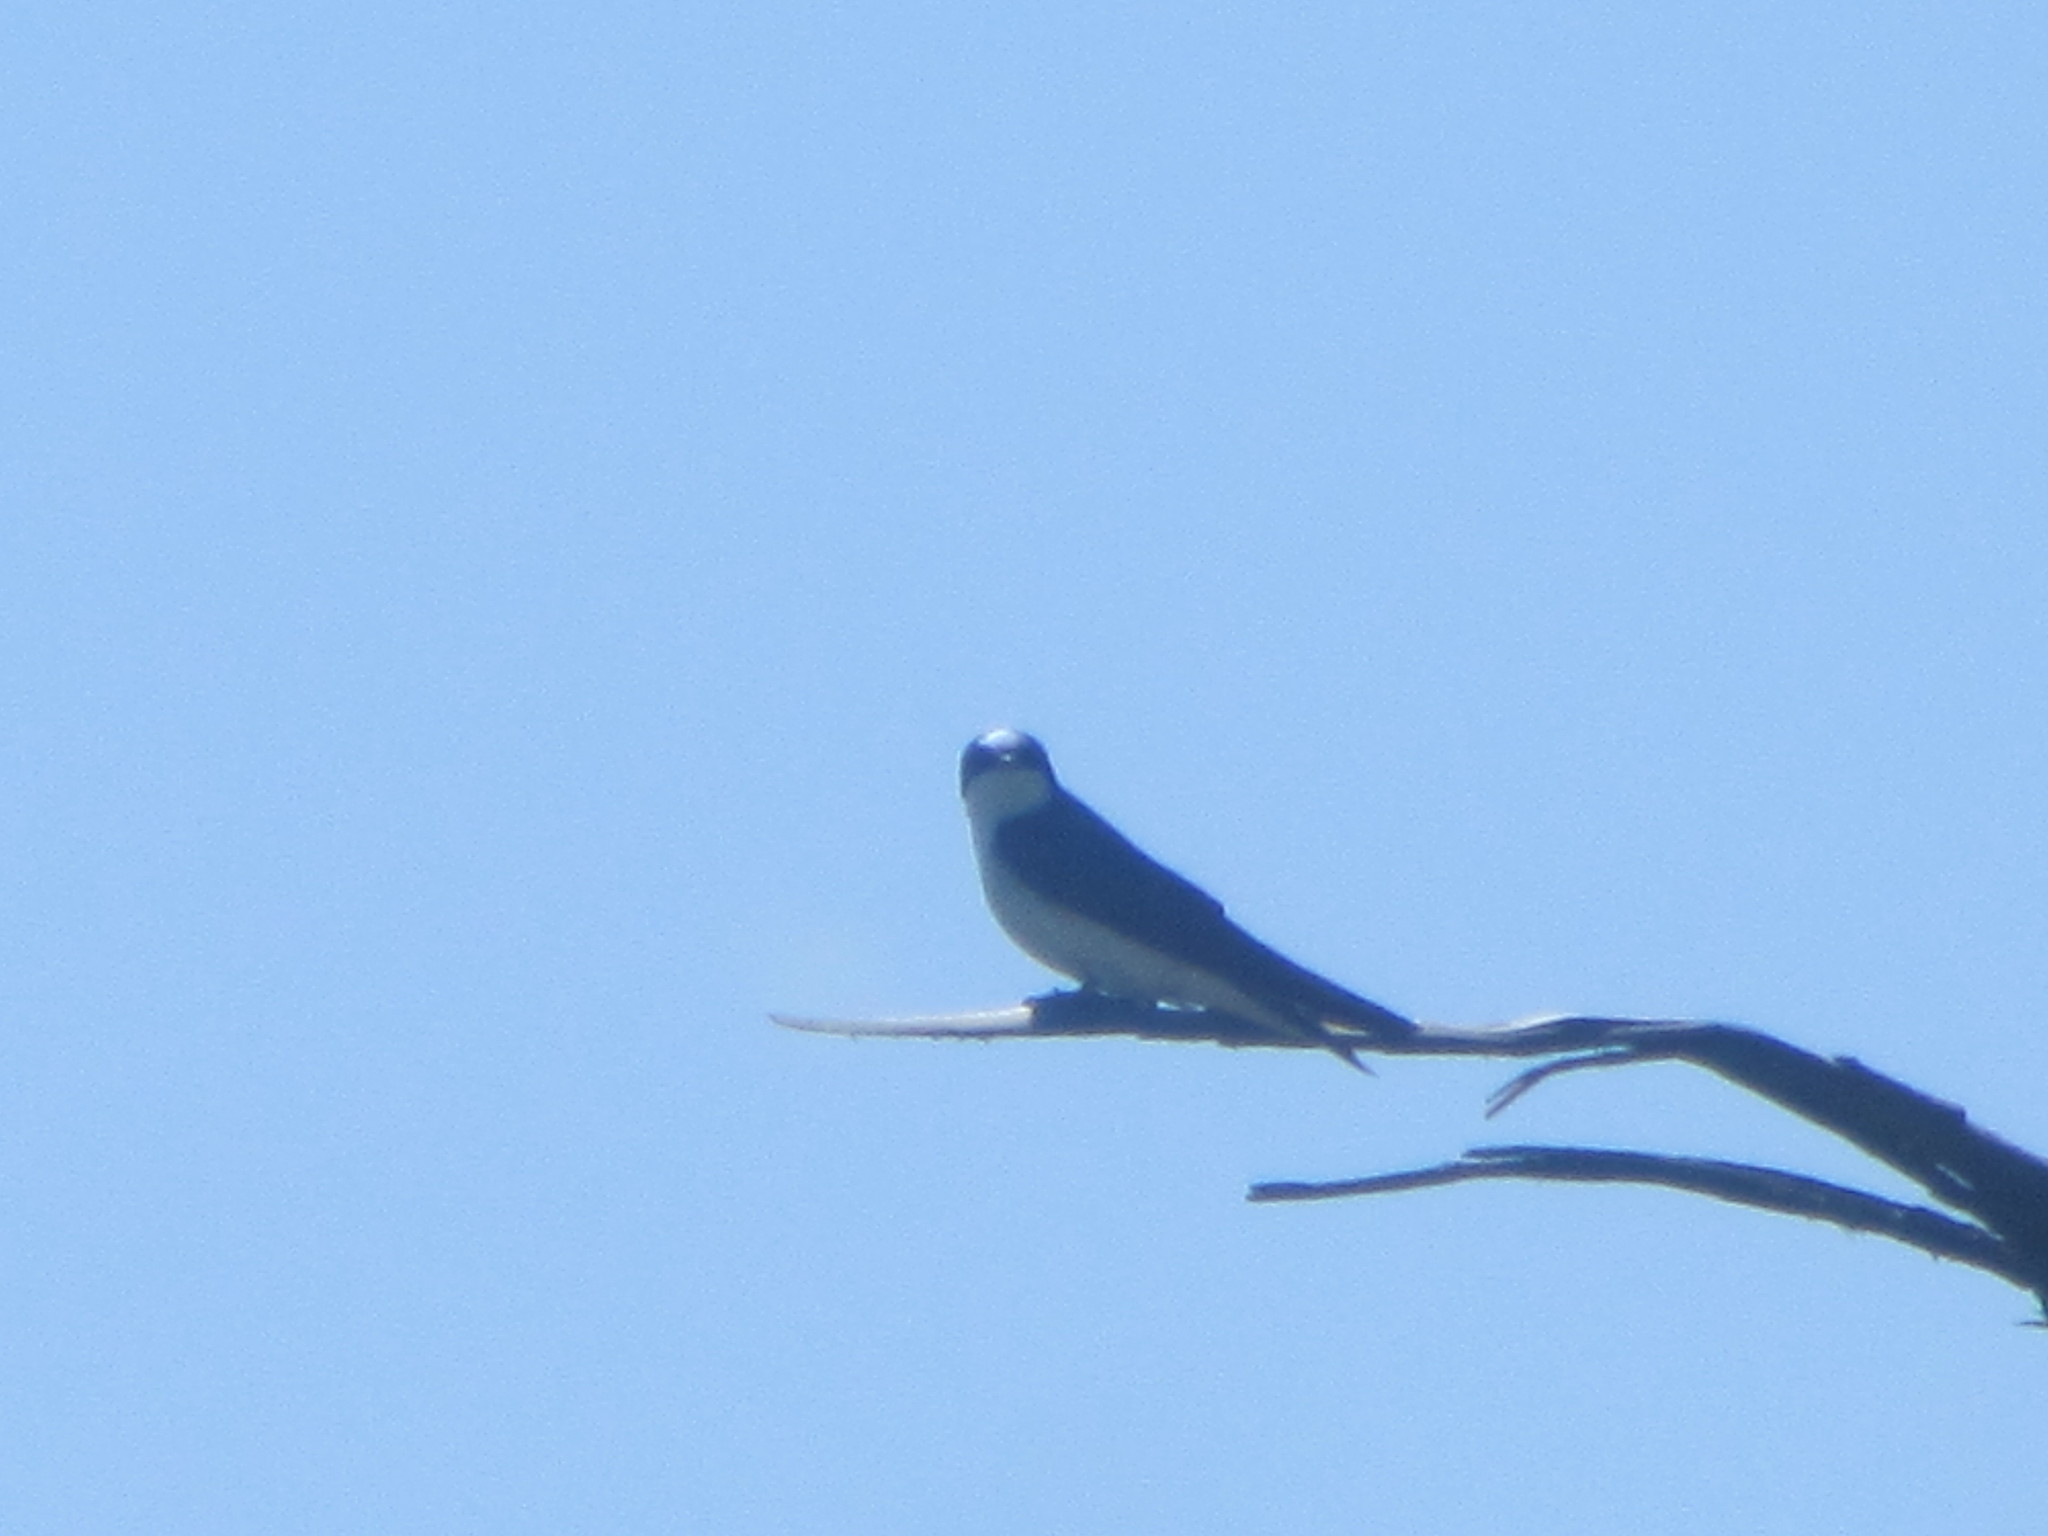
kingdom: Animalia
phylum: Chordata
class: Aves
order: Passeriformes
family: Hirundinidae
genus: Tachycineta
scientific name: Tachycineta bicolor
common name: Tree swallow
